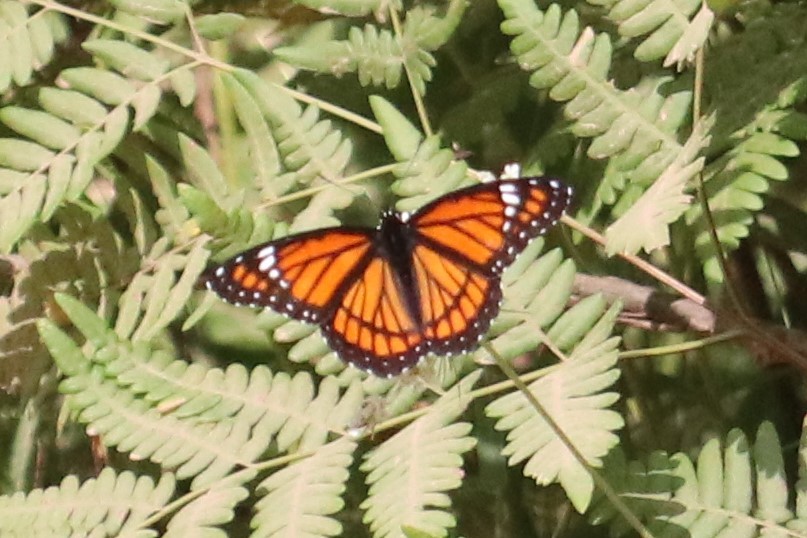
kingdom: Animalia
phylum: Arthropoda
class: Insecta
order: Lepidoptera
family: Nymphalidae
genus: Limenitis
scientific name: Limenitis archippus
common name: Viceroy
